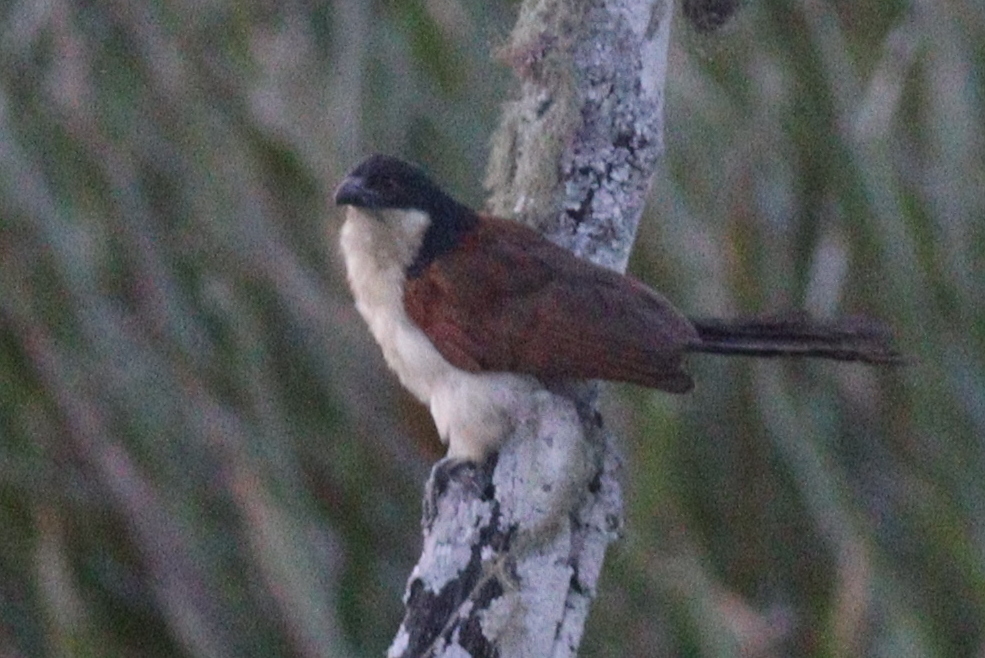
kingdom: Animalia
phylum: Chordata
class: Aves
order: Cuculiformes
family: Cuculidae
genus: Centropus
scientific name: Centropus monachus
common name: Blue-headed coucal
